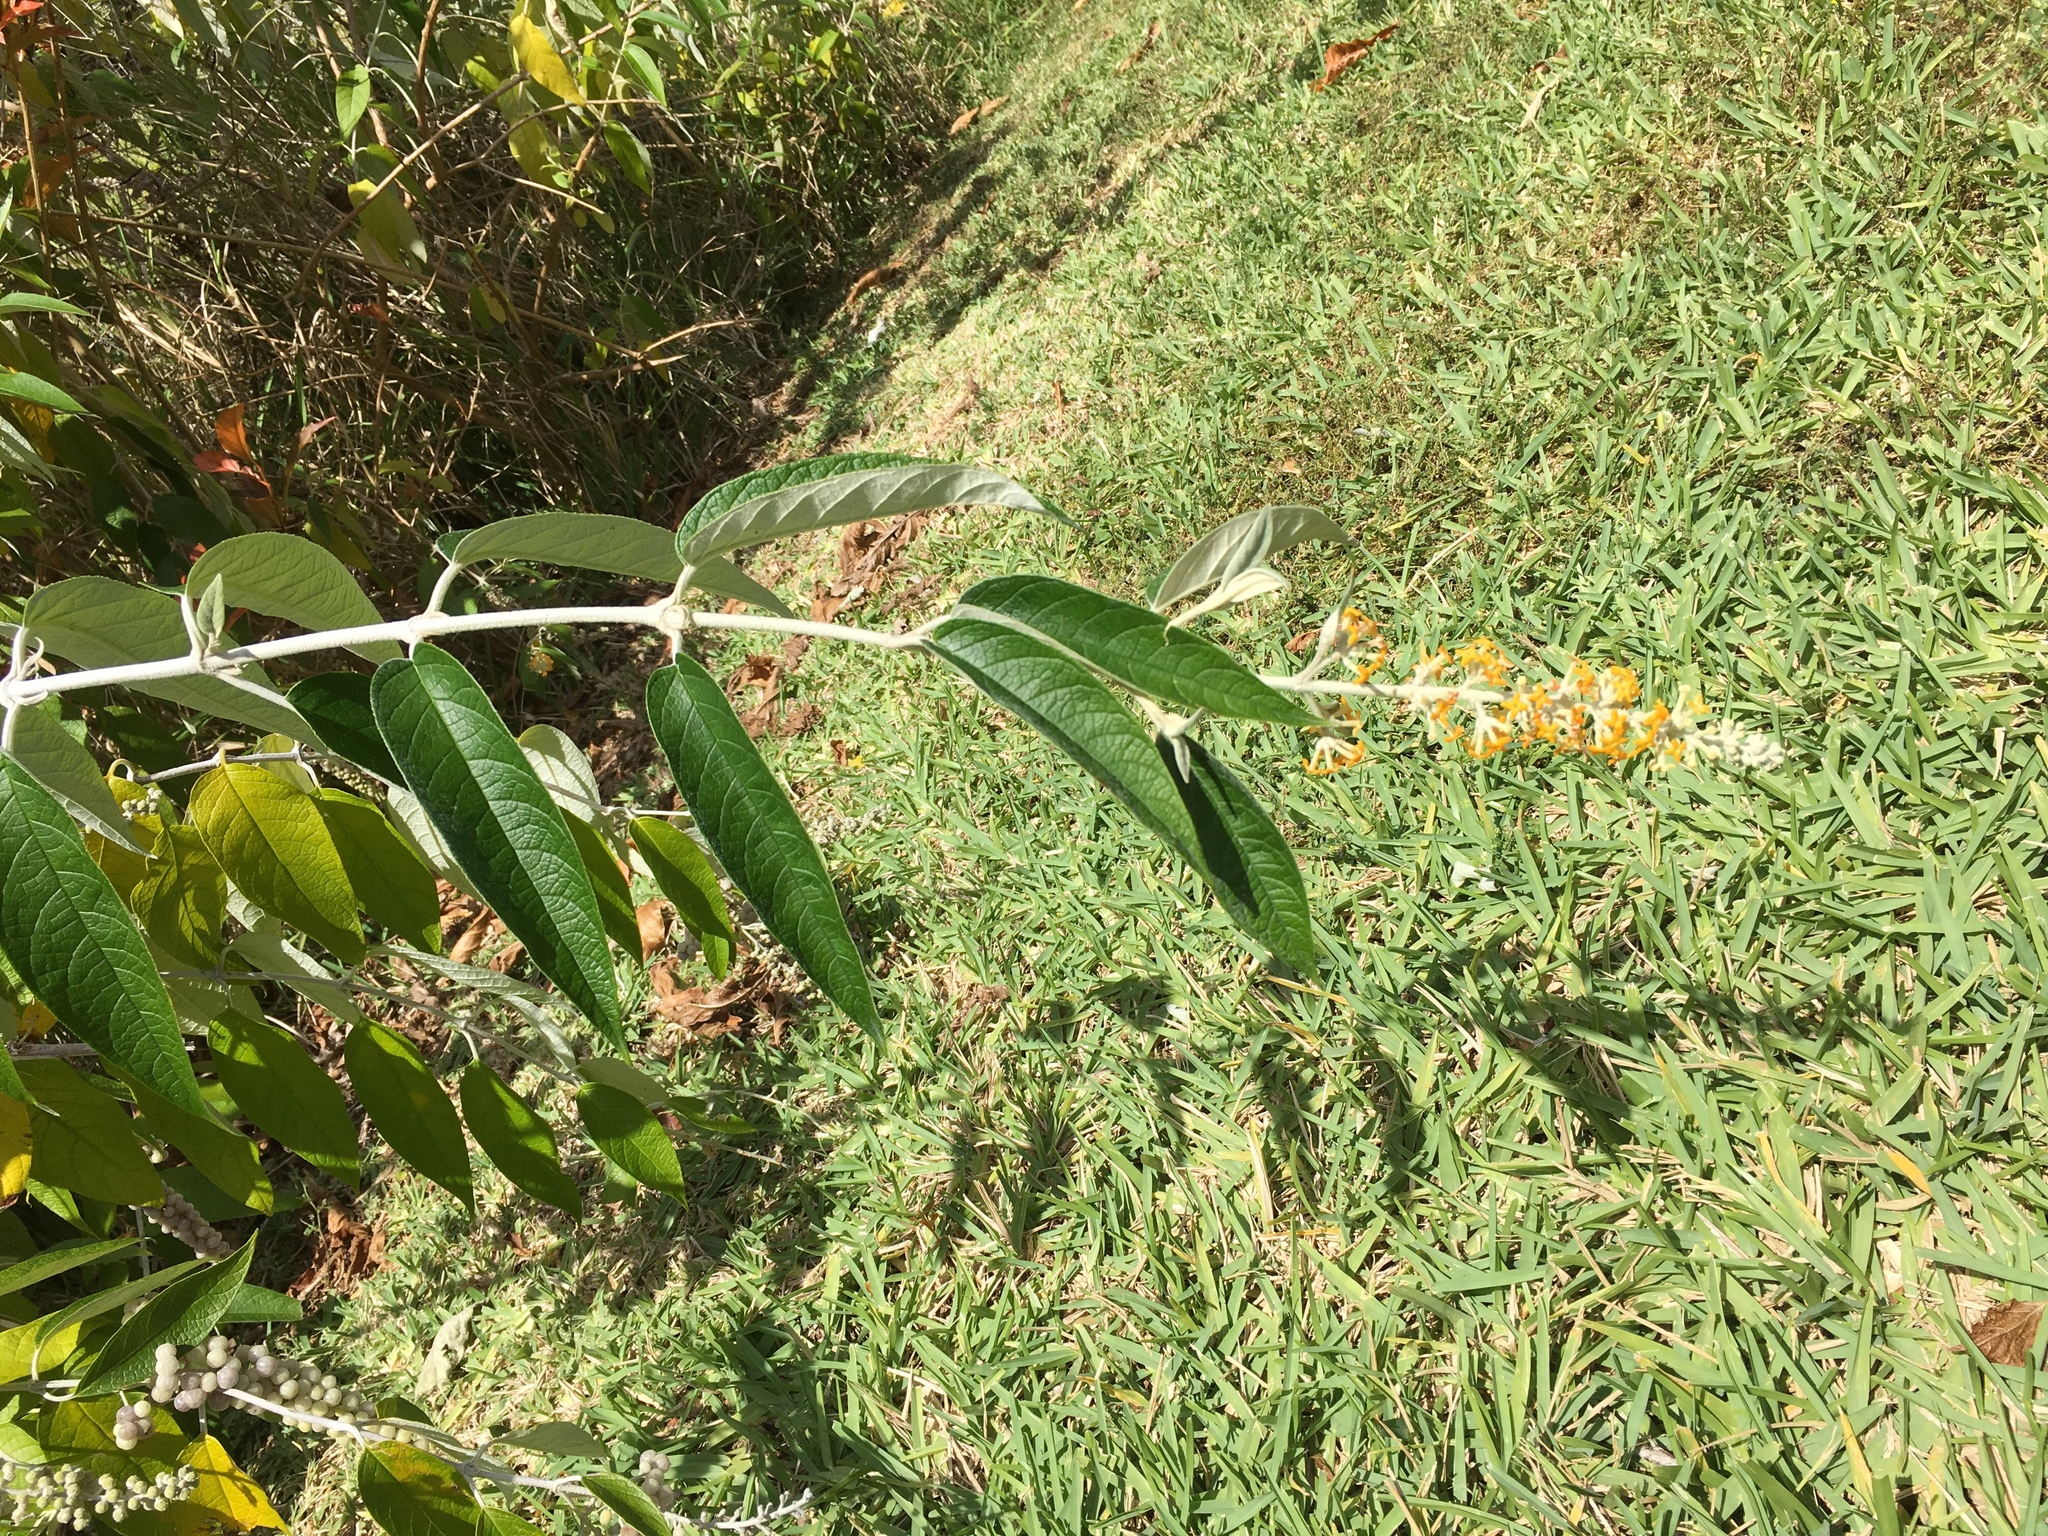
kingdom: Plantae
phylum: Tracheophyta
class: Magnoliopsida
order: Lamiales
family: Scrophulariaceae
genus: Buddleja
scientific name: Buddleja madagascariensis
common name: Smokebush
